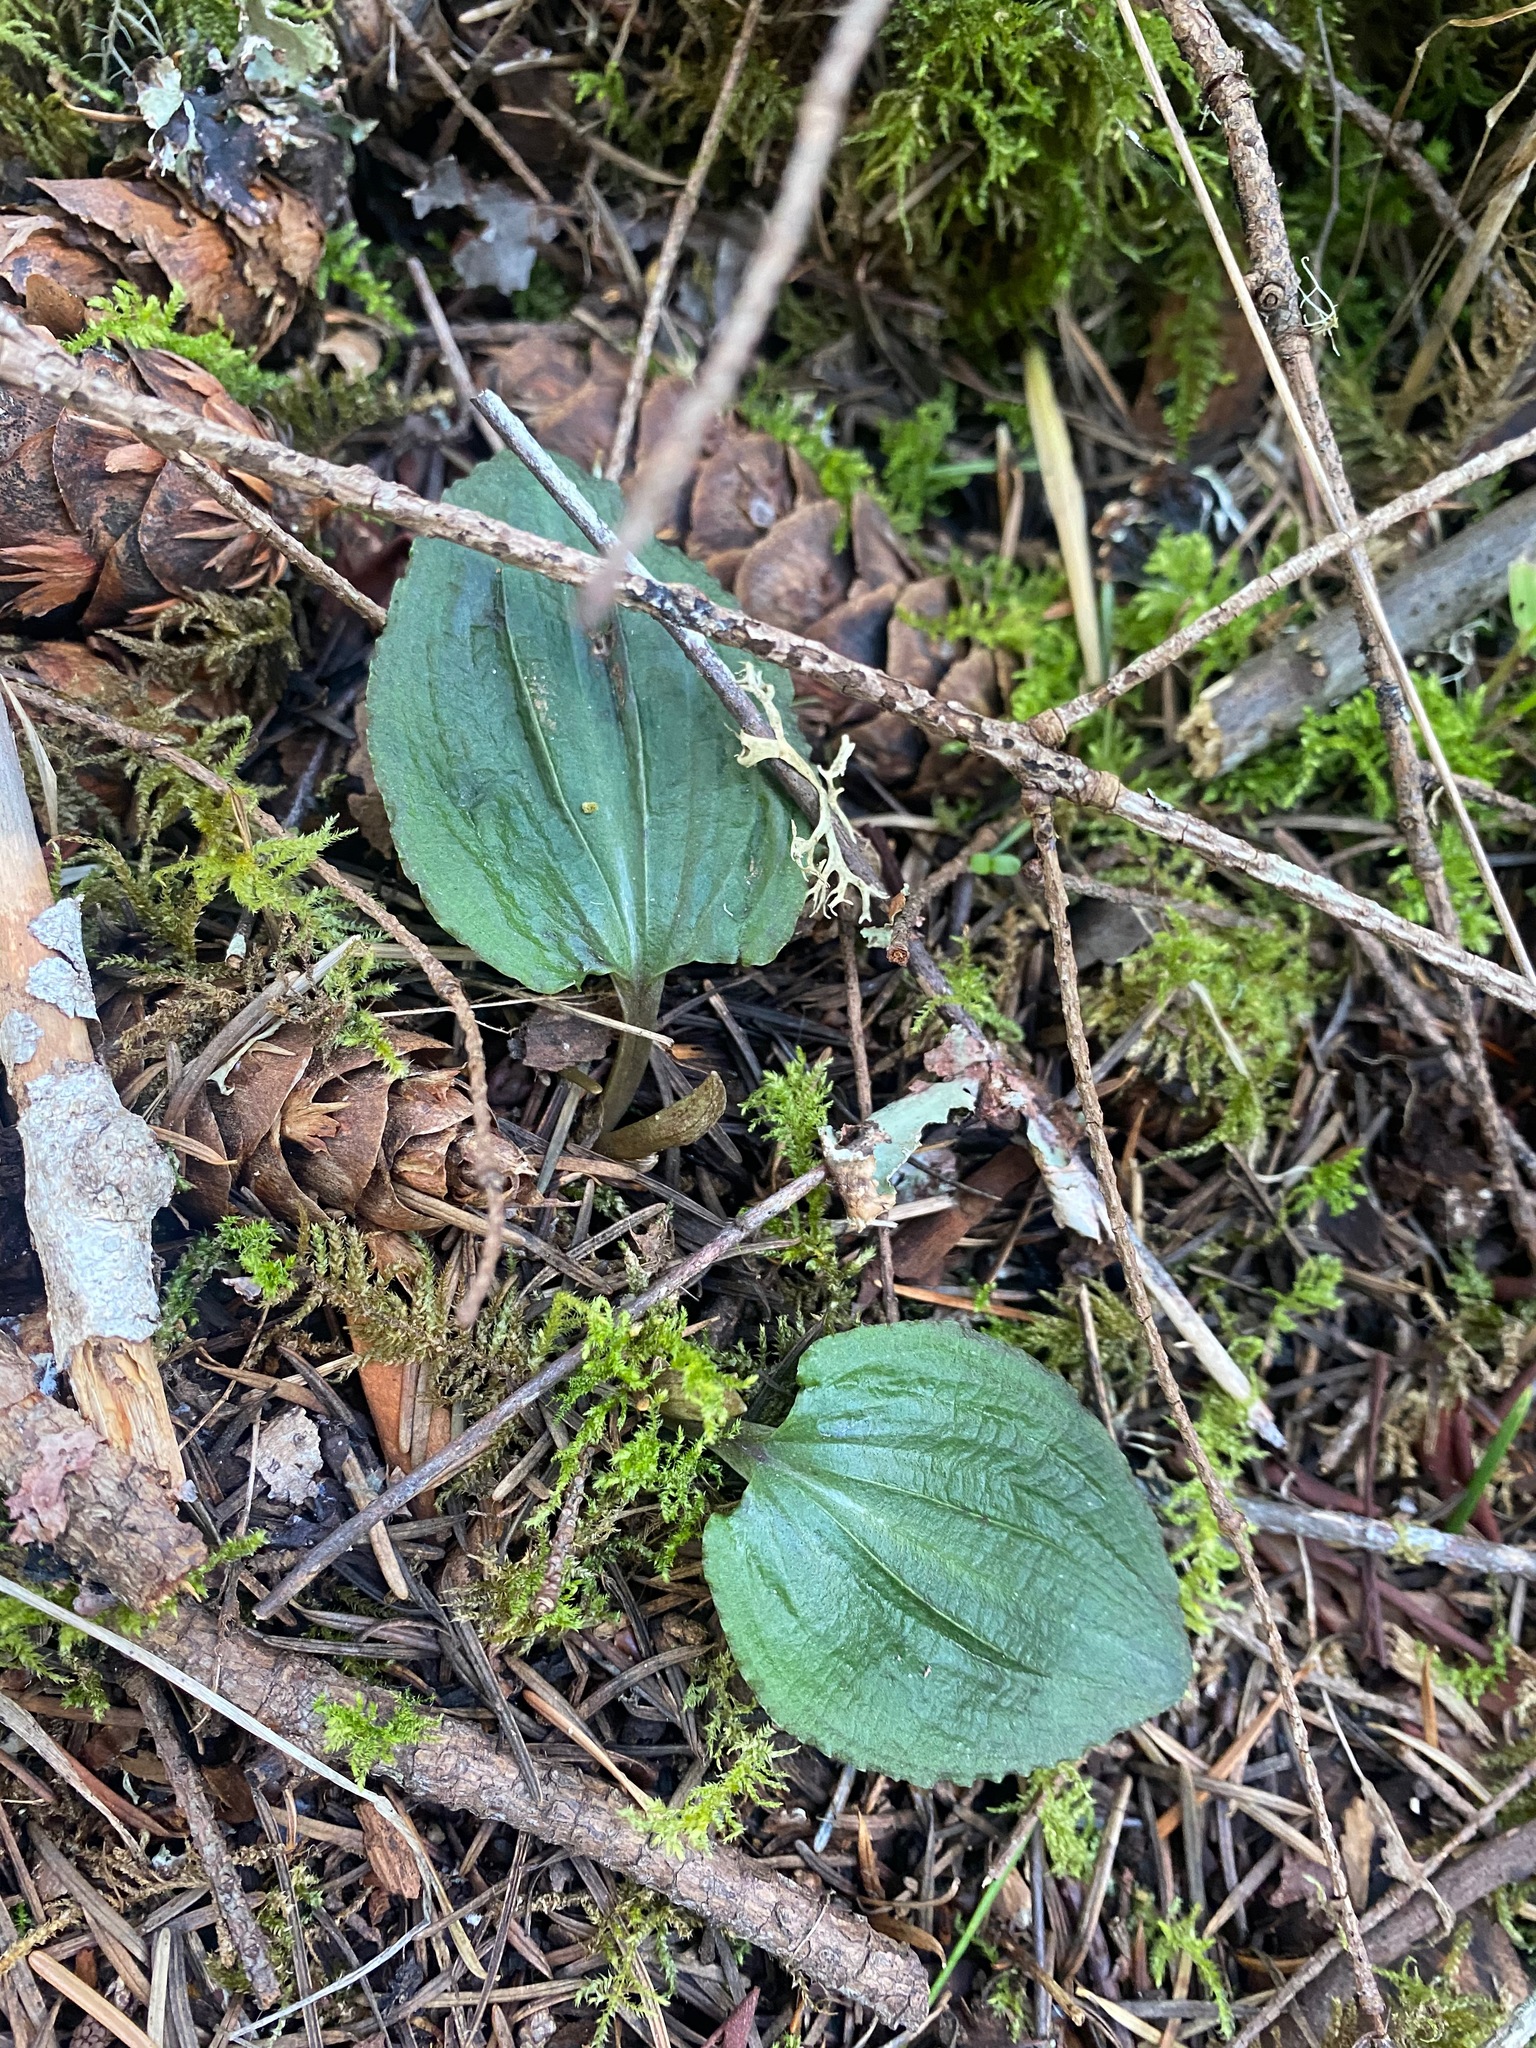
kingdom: Plantae
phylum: Tracheophyta
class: Liliopsida
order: Asparagales
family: Orchidaceae
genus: Calypso
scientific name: Calypso bulbosa
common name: Calypso
